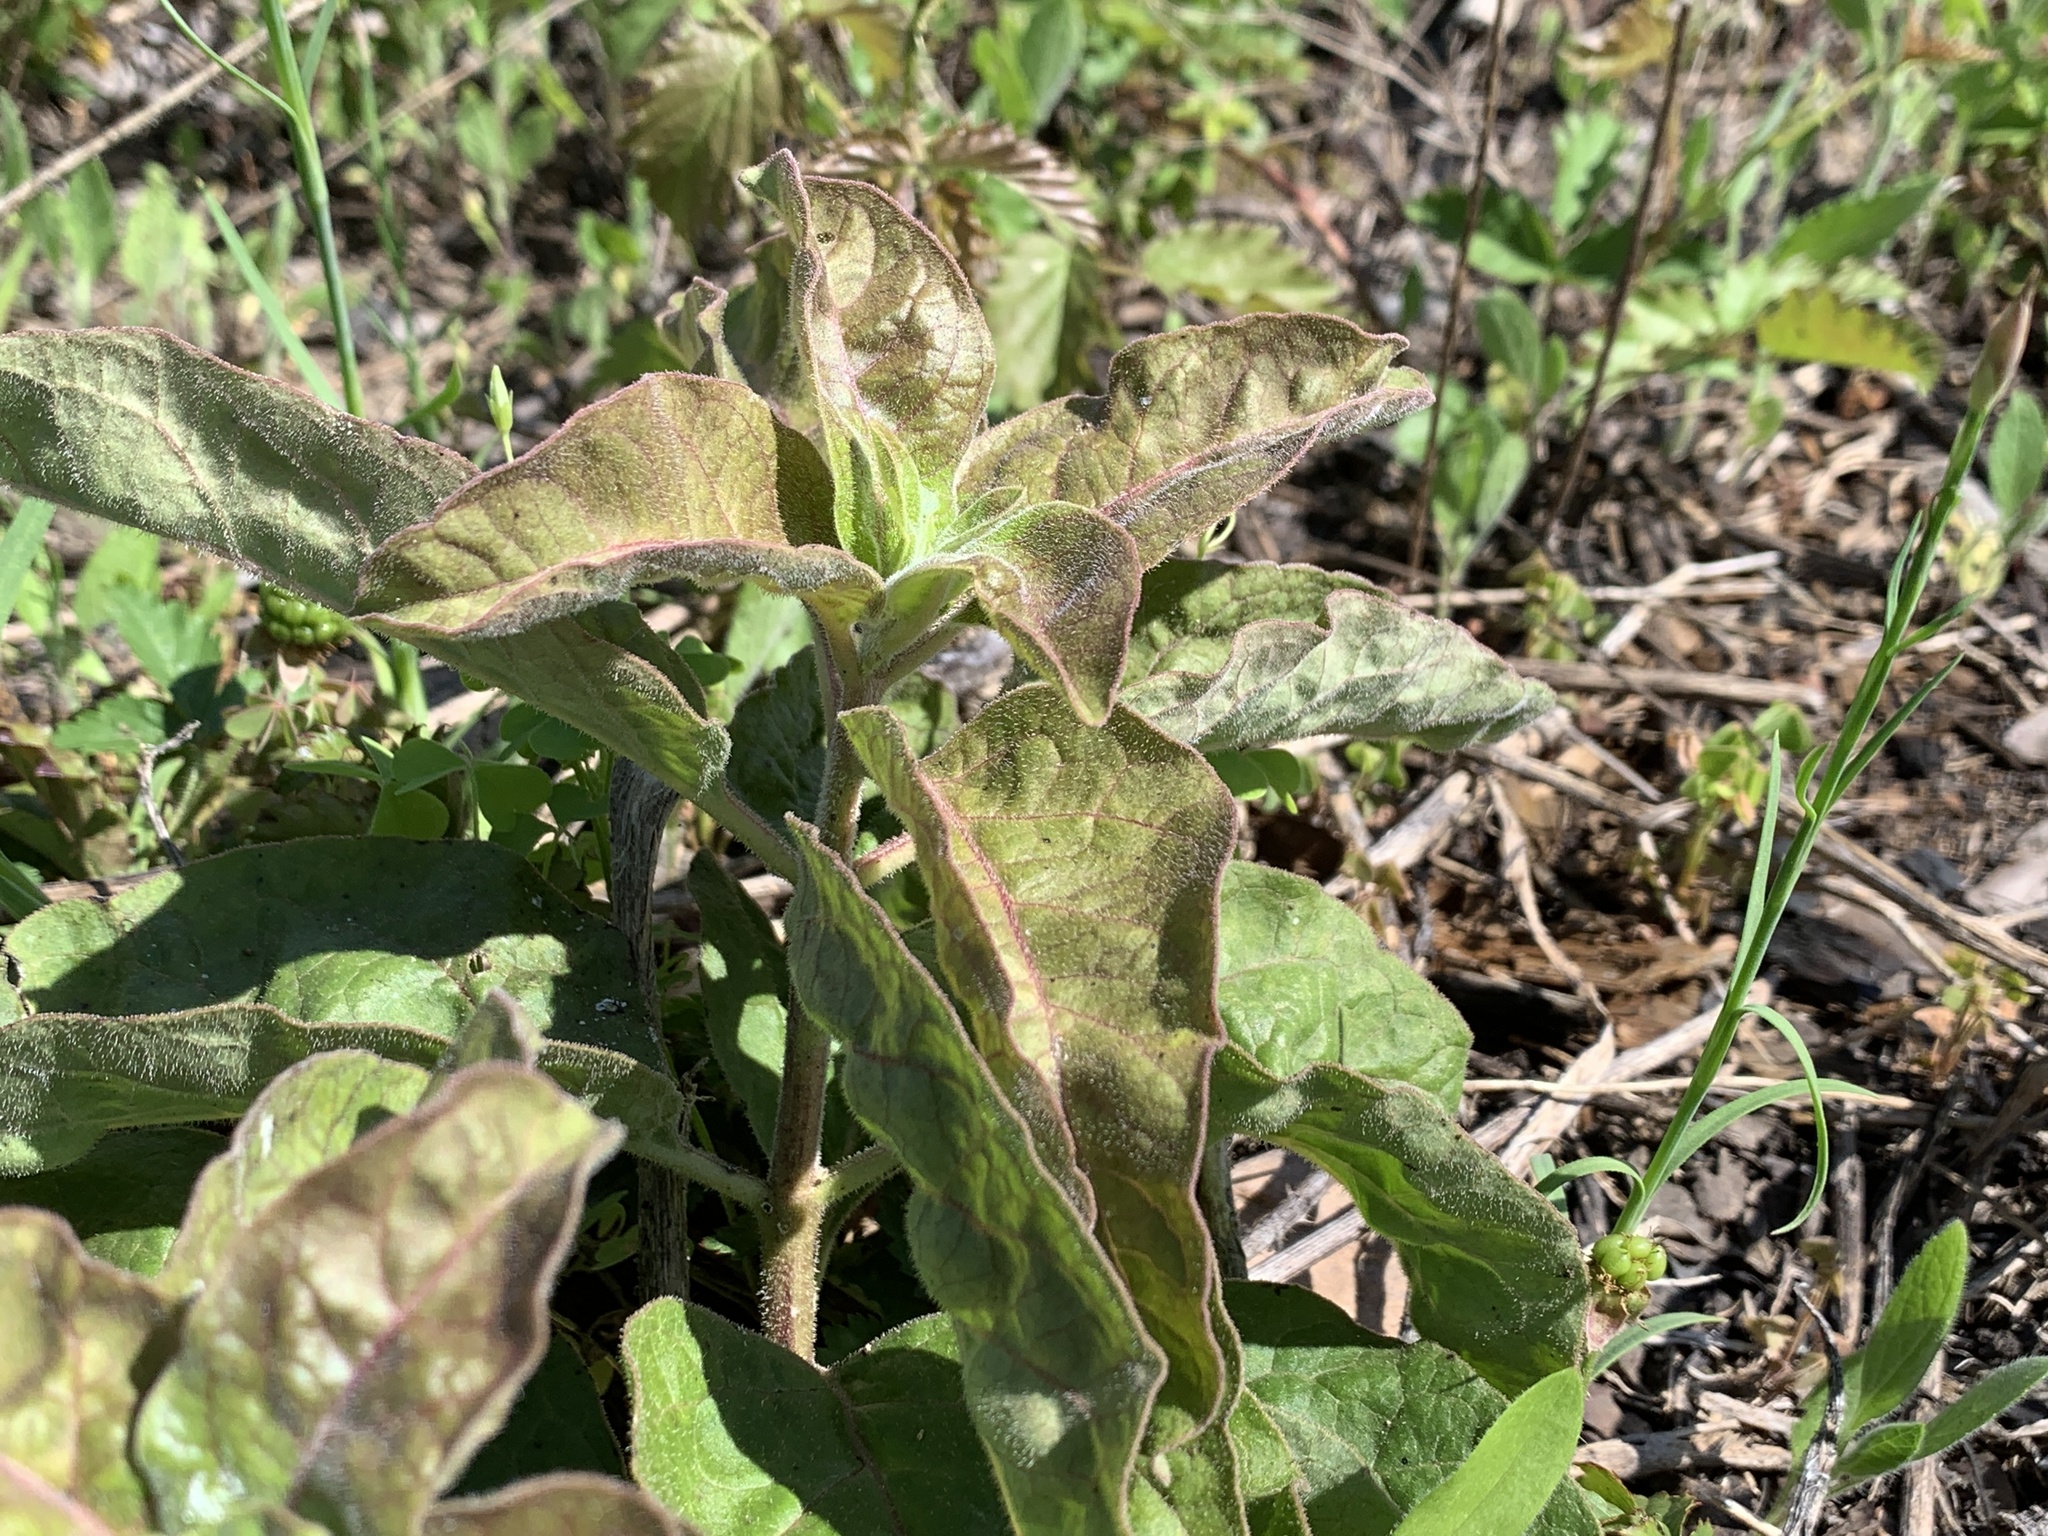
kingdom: Plantae
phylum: Tracheophyta
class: Magnoliopsida
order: Gentianales
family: Apocynaceae
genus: Asclepias
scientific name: Asclepias oenotheroides
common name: Zizotes milkweed
